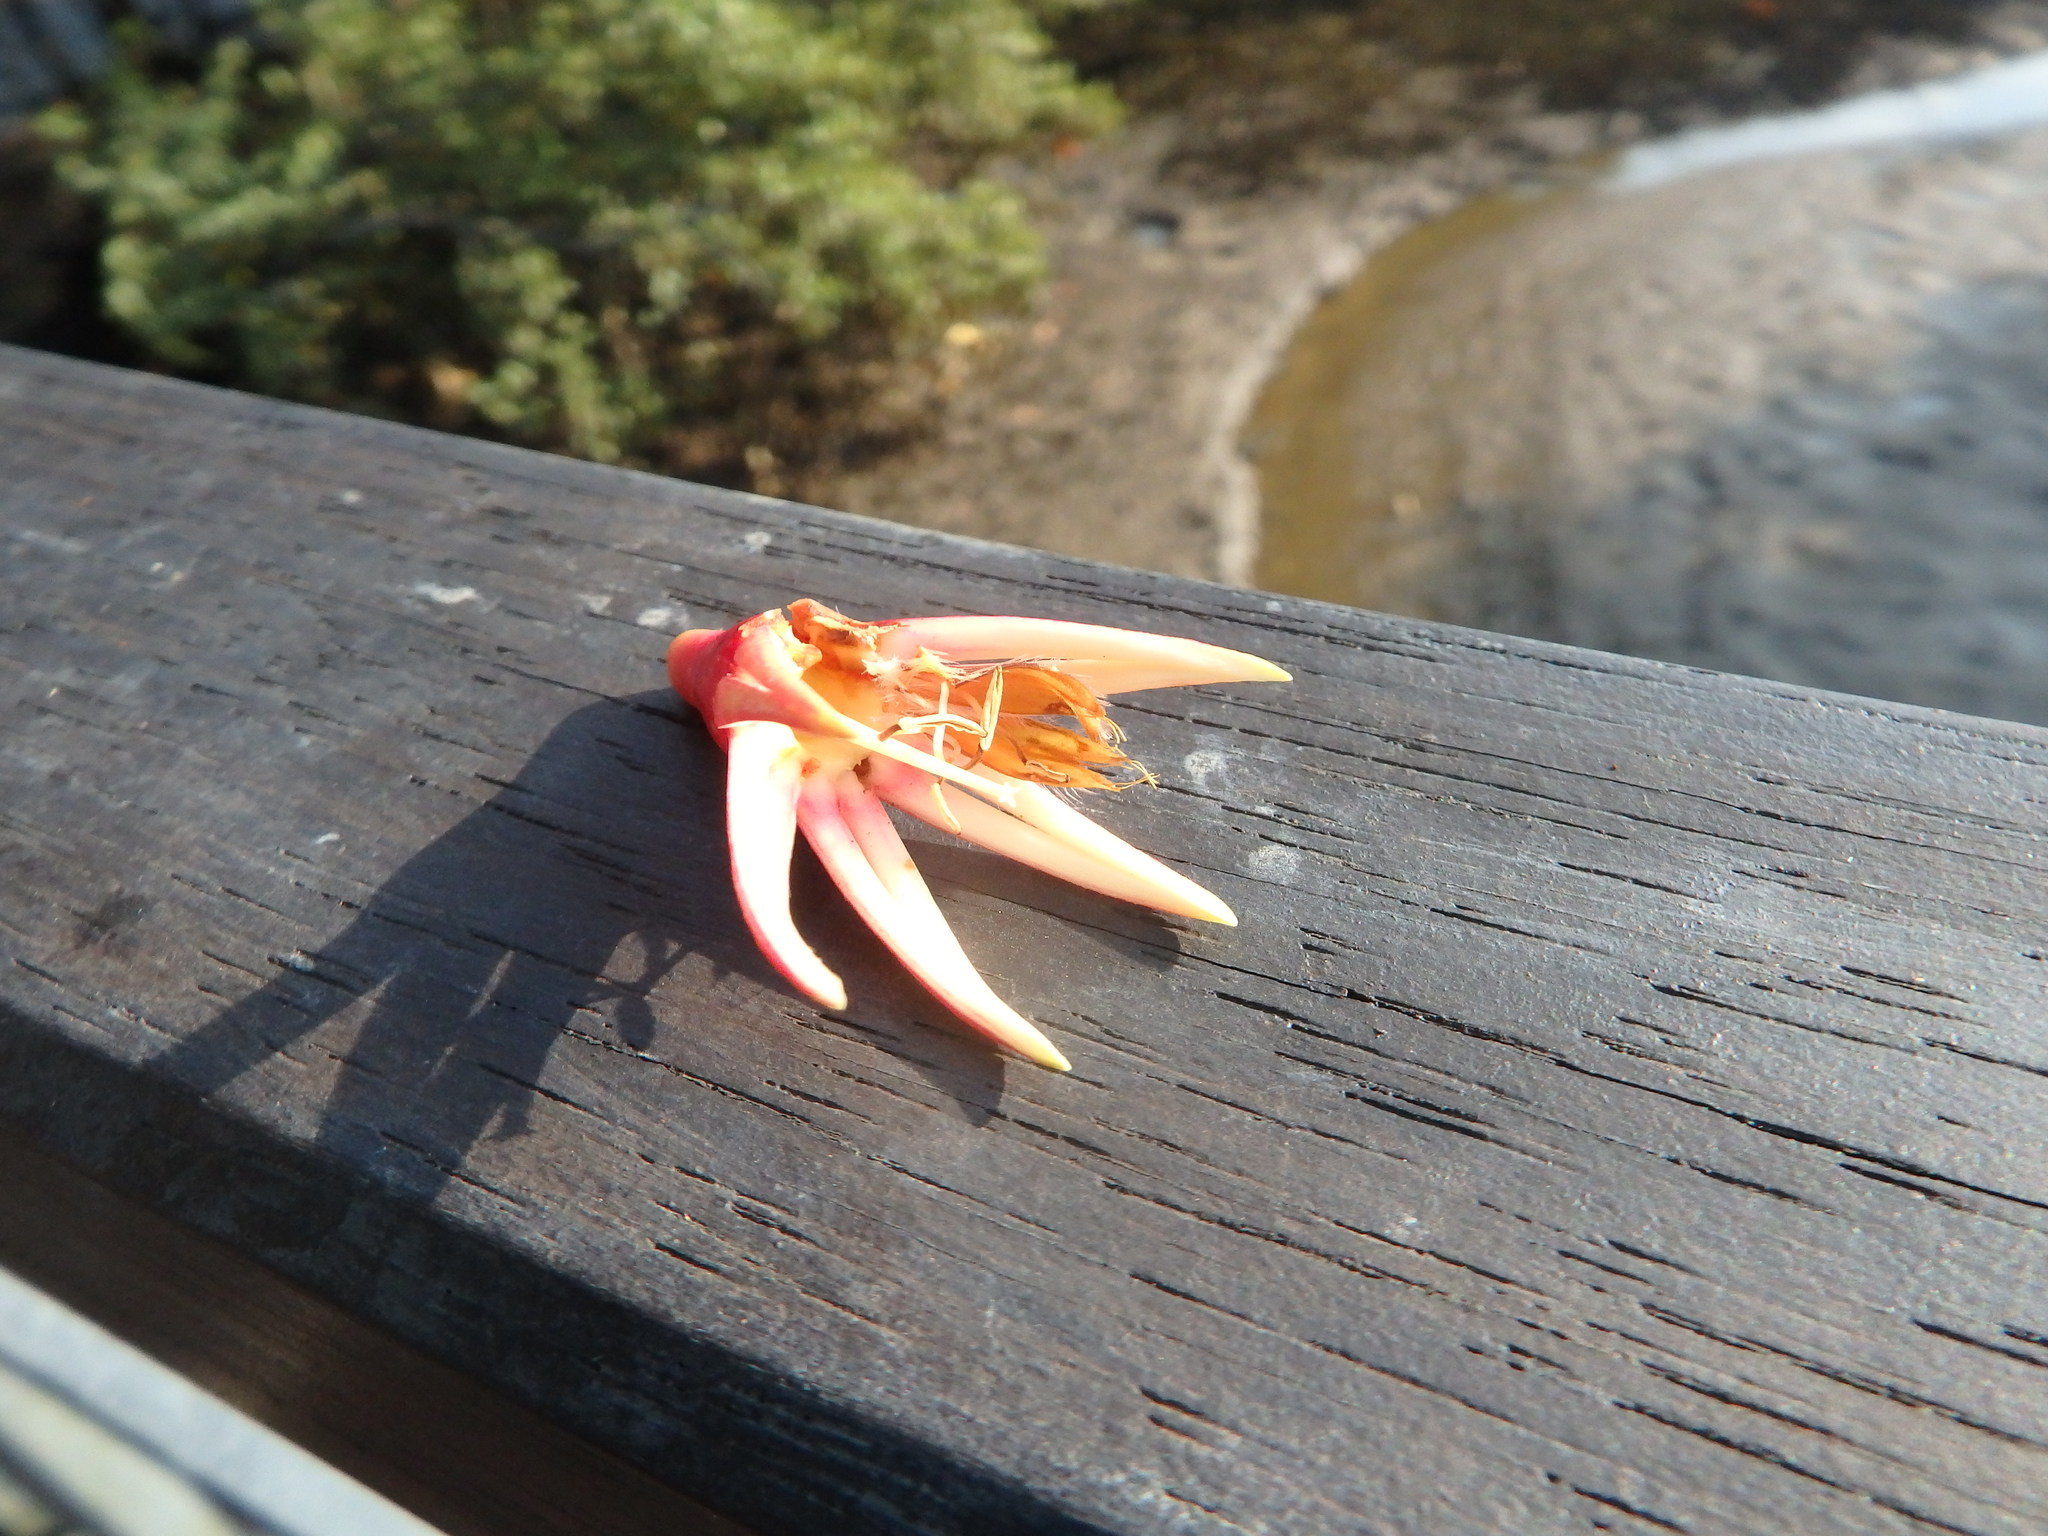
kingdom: Plantae
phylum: Tracheophyta
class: Magnoliopsida
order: Malpighiales
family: Rhizophoraceae
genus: Bruguiera
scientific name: Bruguiera gymnorhiza
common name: Oriental mangrove
